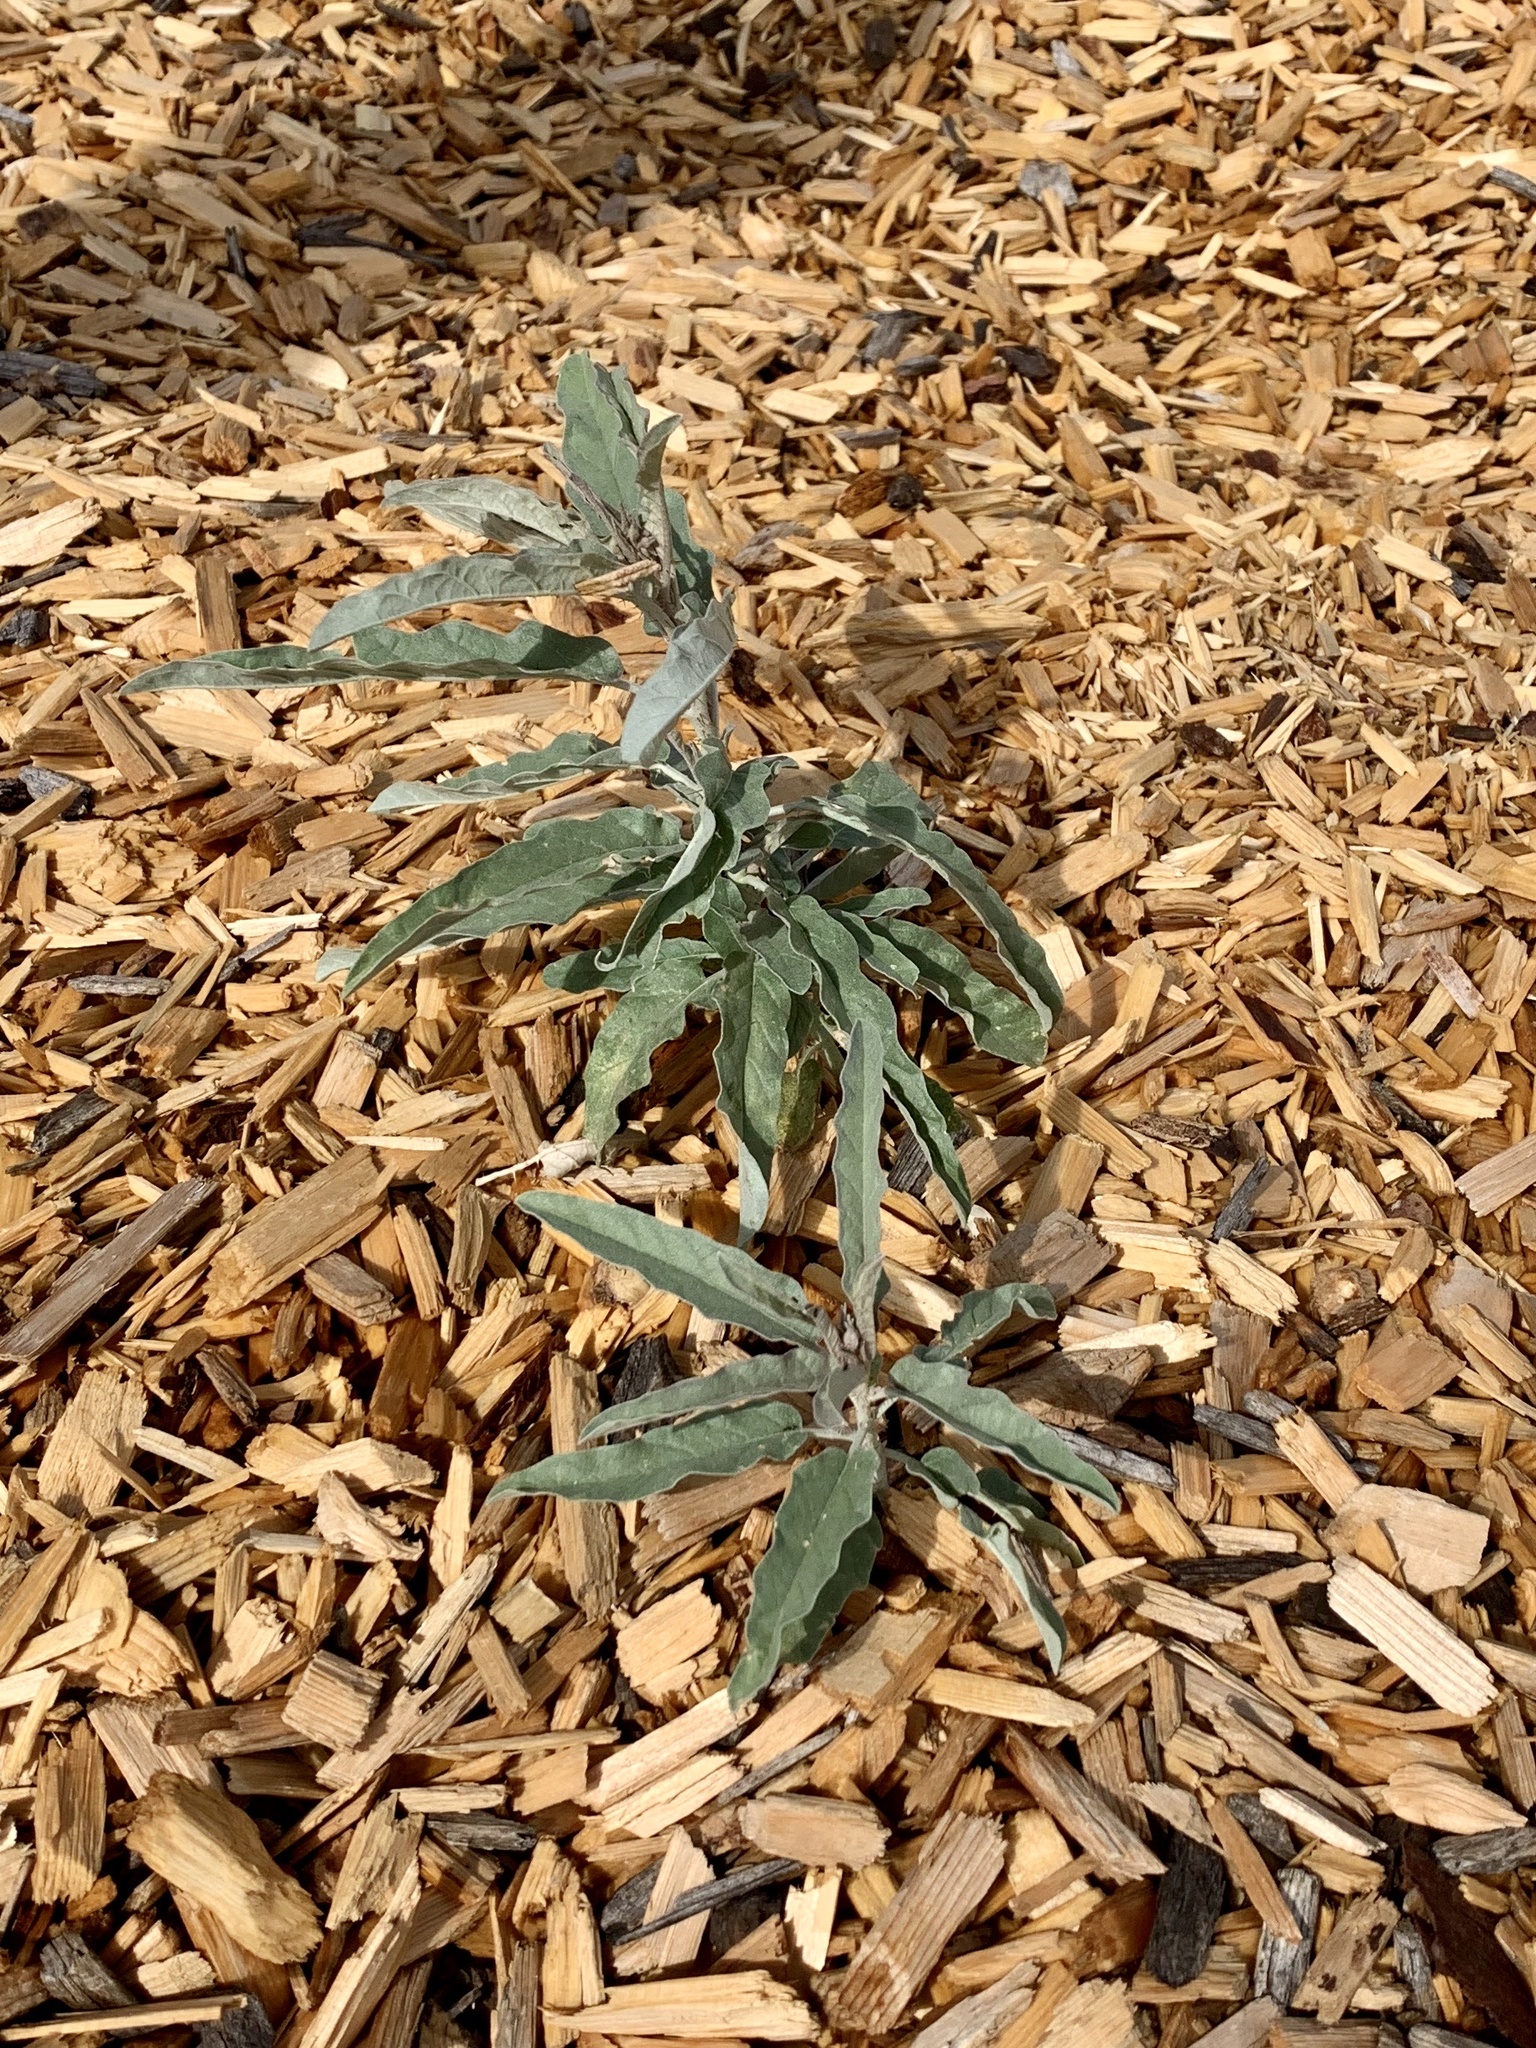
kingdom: Plantae
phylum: Tracheophyta
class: Magnoliopsida
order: Solanales
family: Solanaceae
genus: Solanum
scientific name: Solanum elaeagnifolium
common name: Silverleaf nightshade
